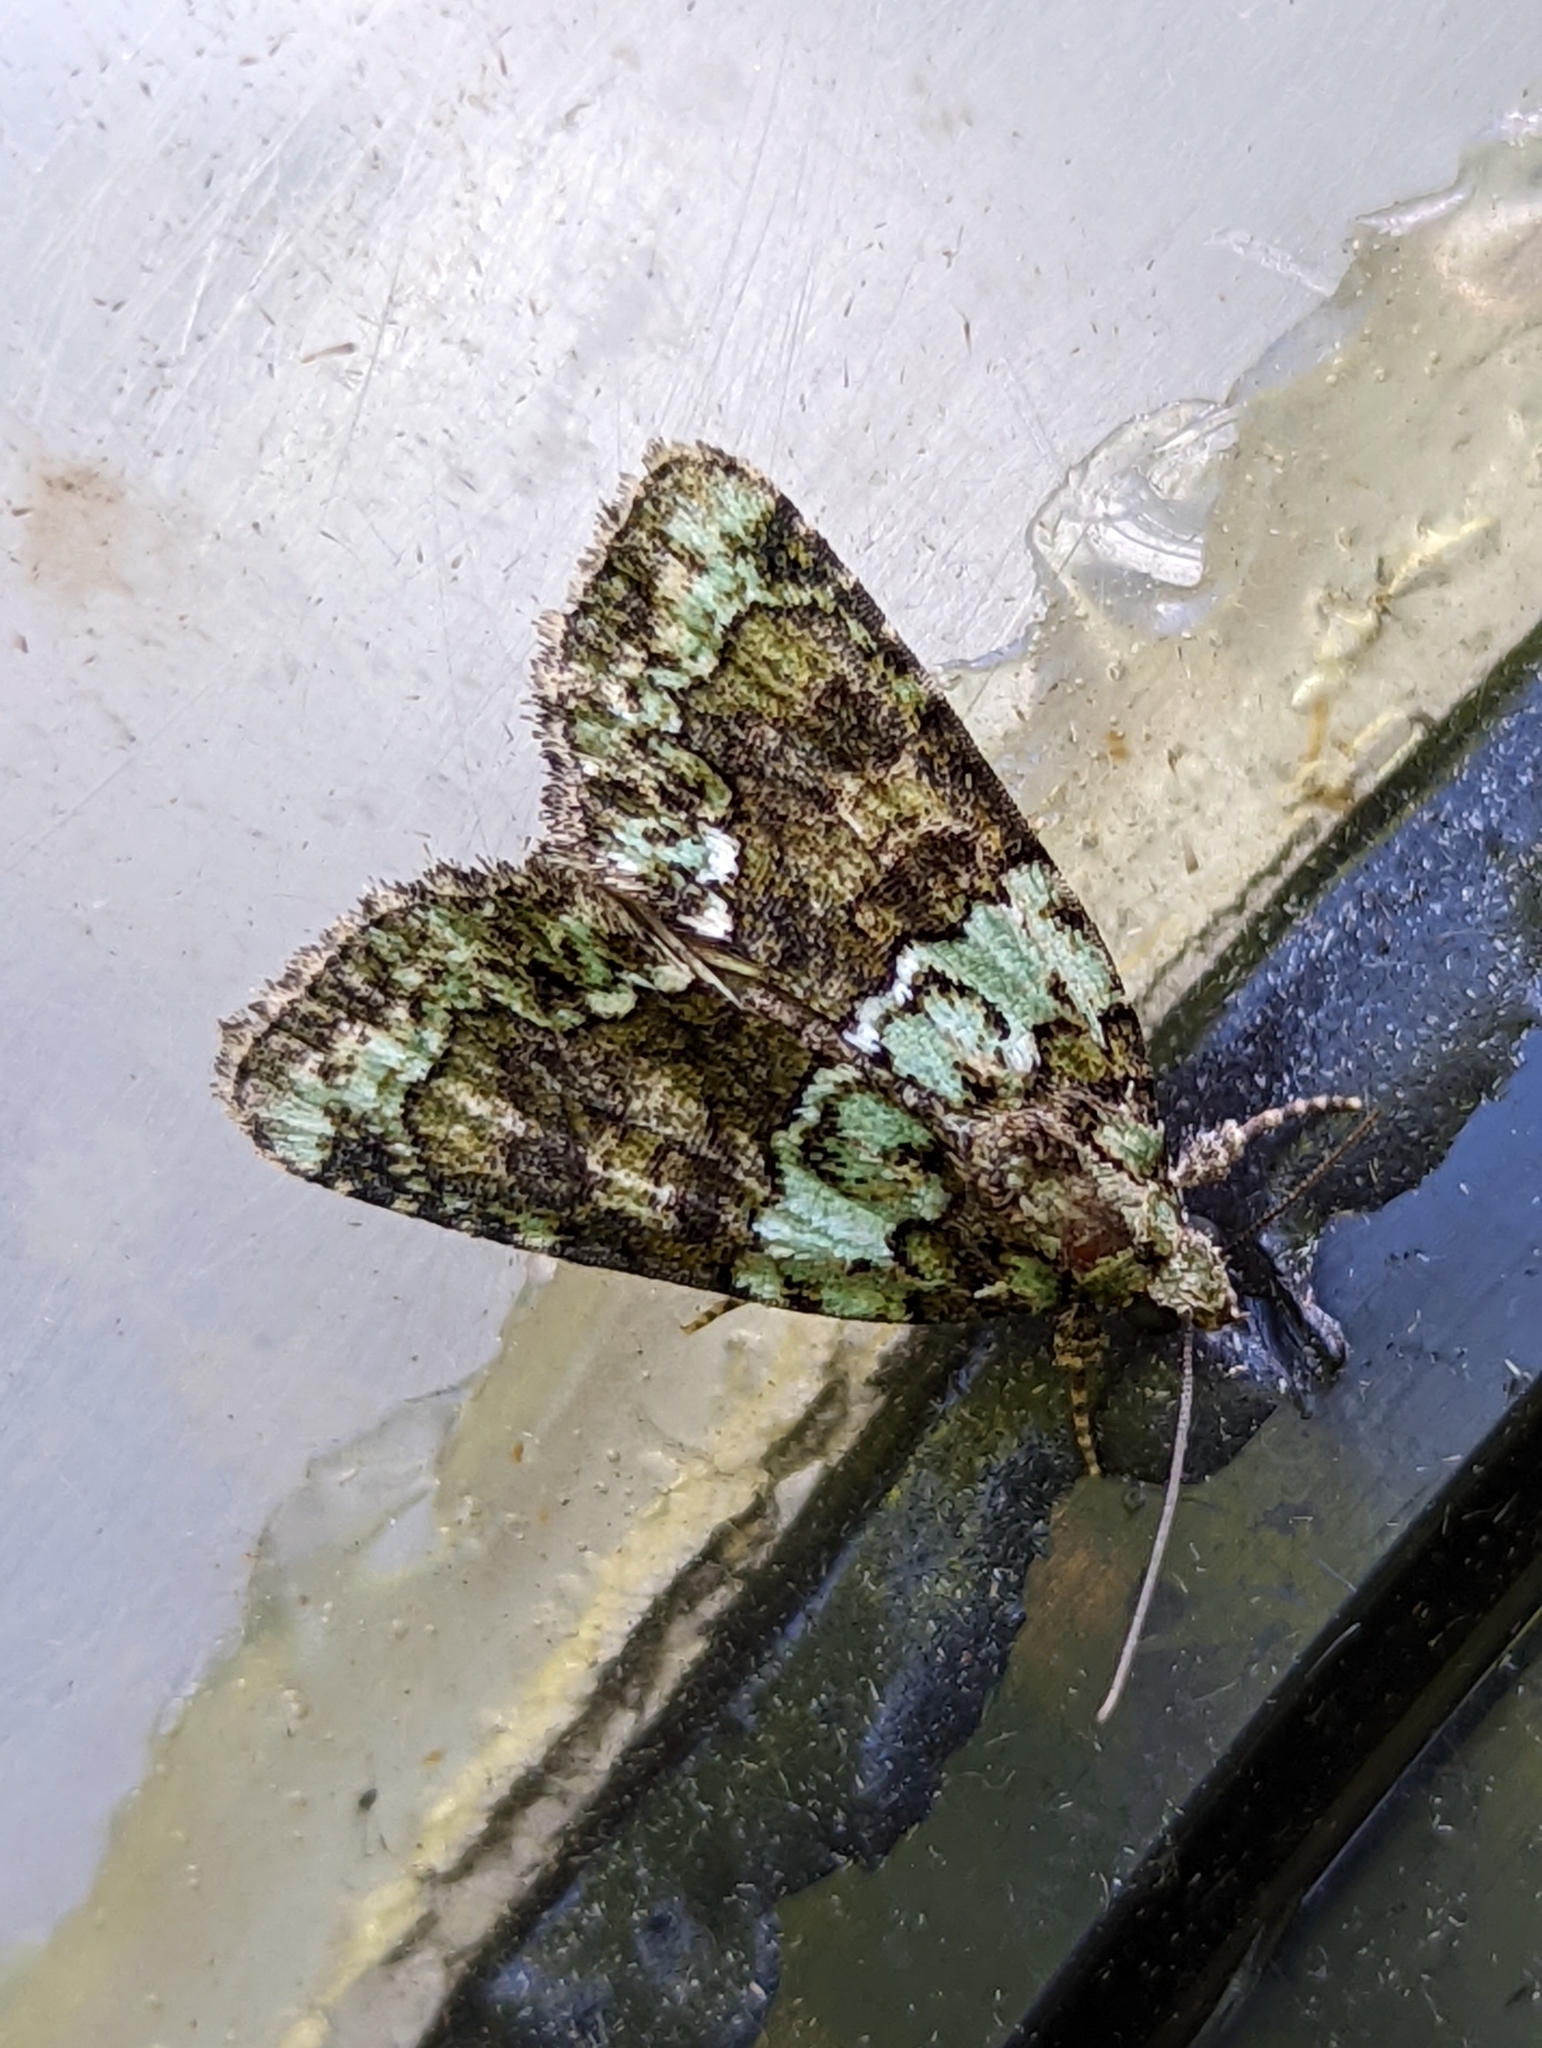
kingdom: Animalia
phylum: Arthropoda
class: Insecta
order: Lepidoptera
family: Noctuidae
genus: Cryphia
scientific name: Cryphia algae
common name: Tree-lichen beauty
